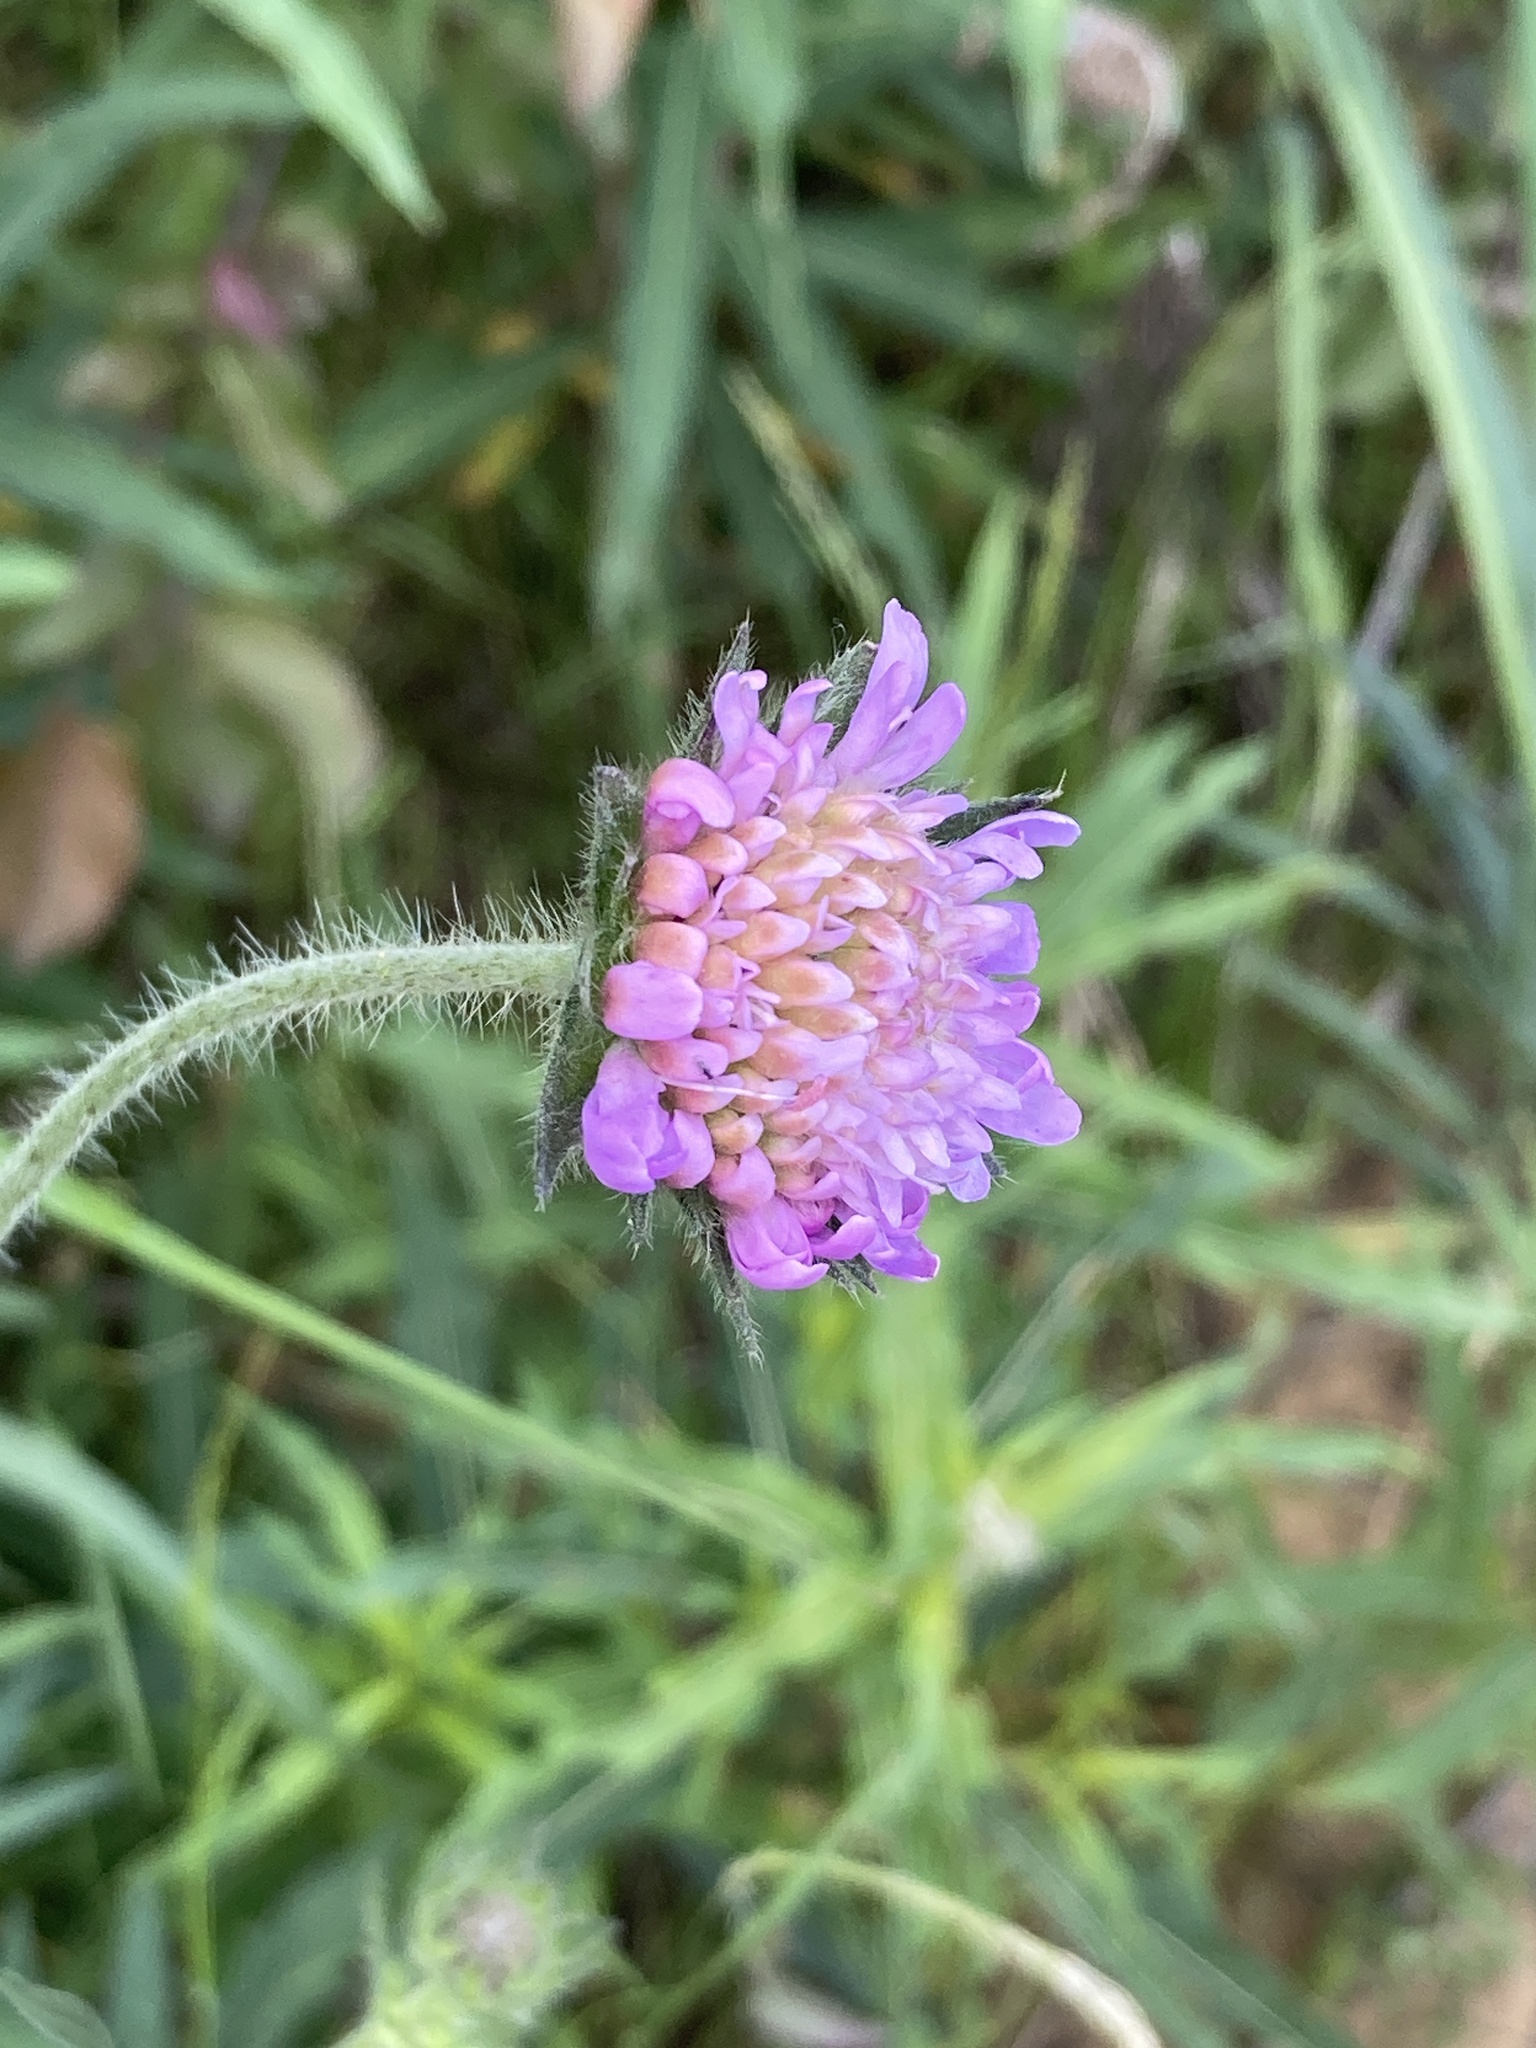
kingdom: Plantae
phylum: Tracheophyta
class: Magnoliopsida
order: Dipsacales
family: Caprifoliaceae
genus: Knautia
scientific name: Knautia arvensis
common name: Field scabiosa
